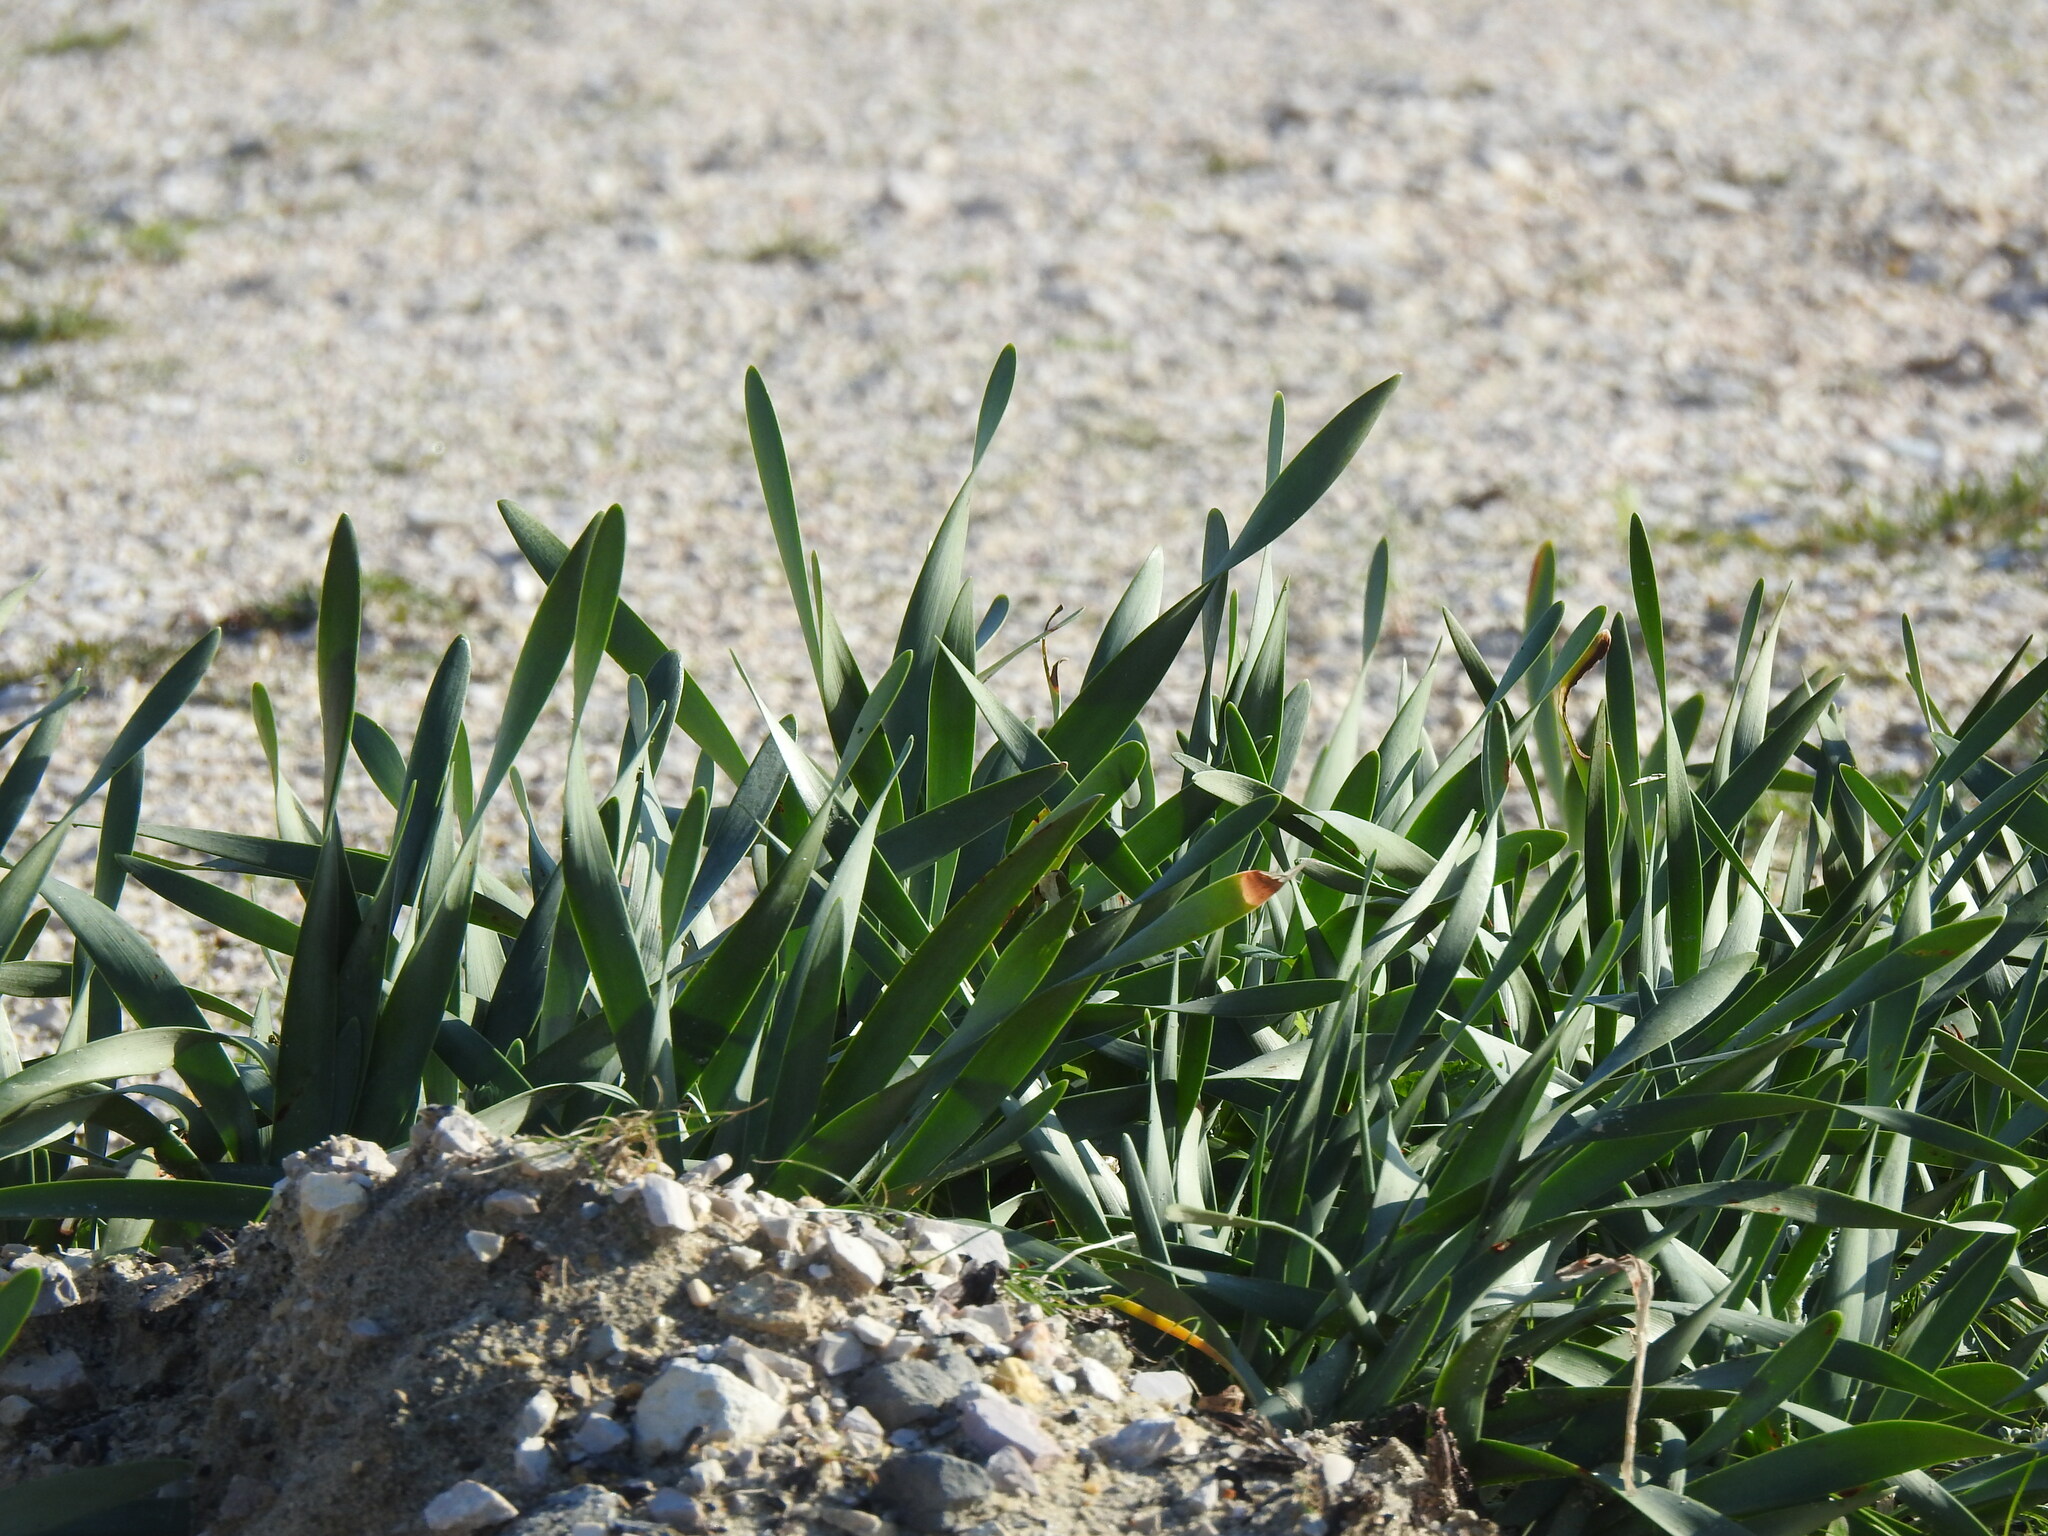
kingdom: Plantae
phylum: Tracheophyta
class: Liliopsida
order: Asparagales
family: Amaryllidaceae
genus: Pancratium
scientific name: Pancratium maritimum
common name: Sea-daffodil
